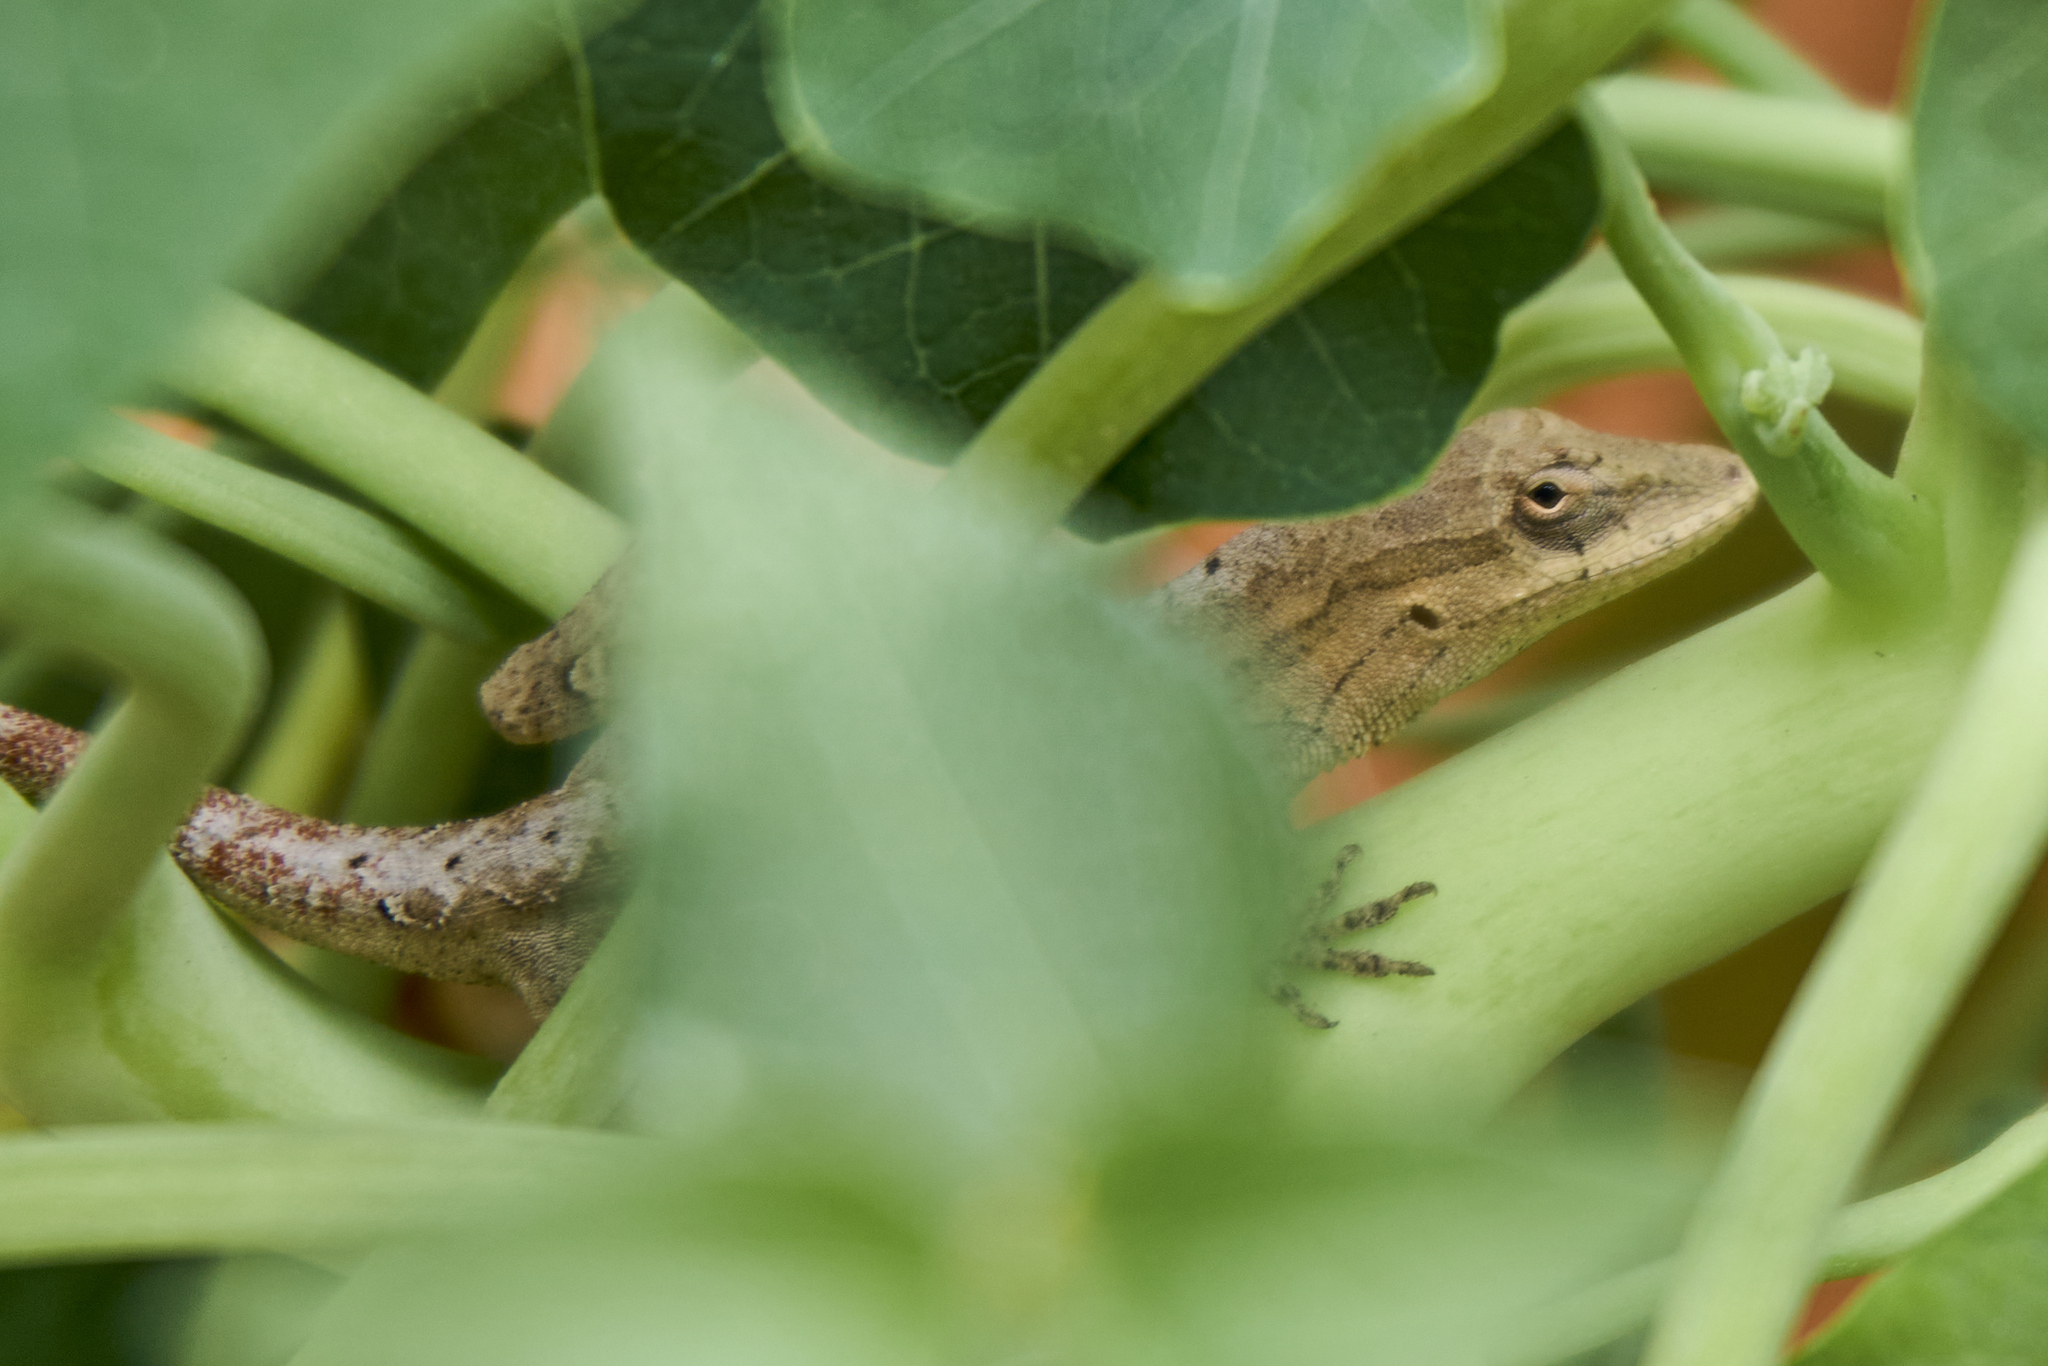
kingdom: Animalia
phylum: Chordata
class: Squamata
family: Dactyloidae
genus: Anolis
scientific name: Anolis nebulosus
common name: Clouded anole
